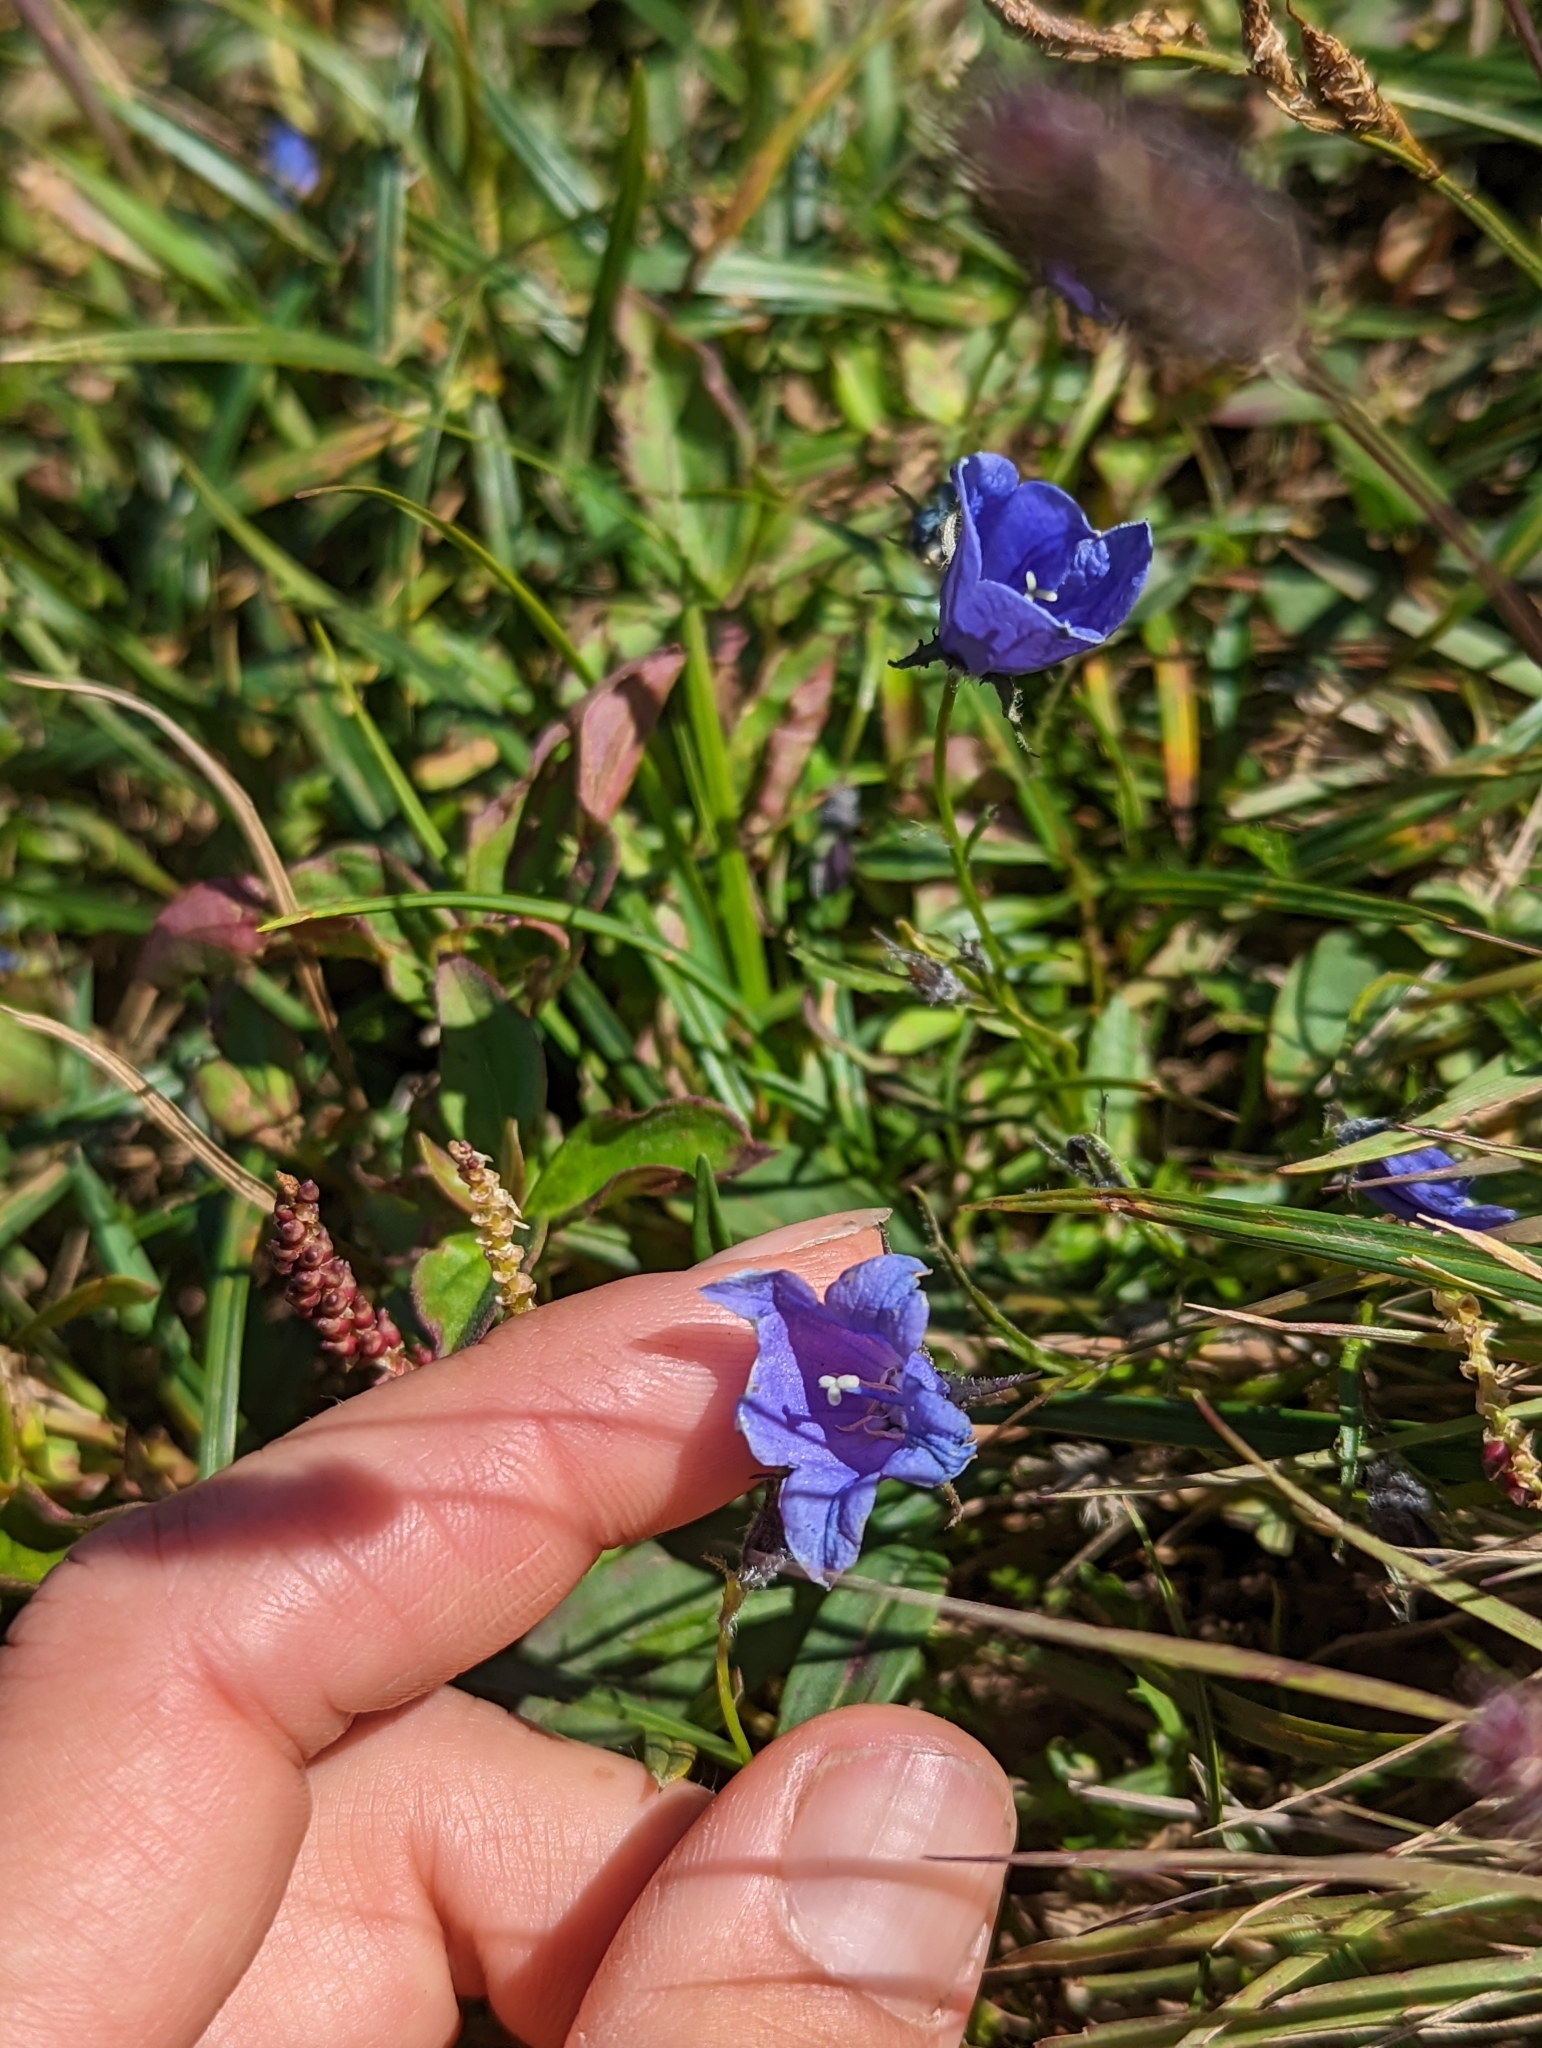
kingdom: Plantae
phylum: Tracheophyta
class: Magnoliopsida
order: Asterales
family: Campanulaceae
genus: Campanula
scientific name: Campanula lasiocarpa
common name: Mountain harebell
